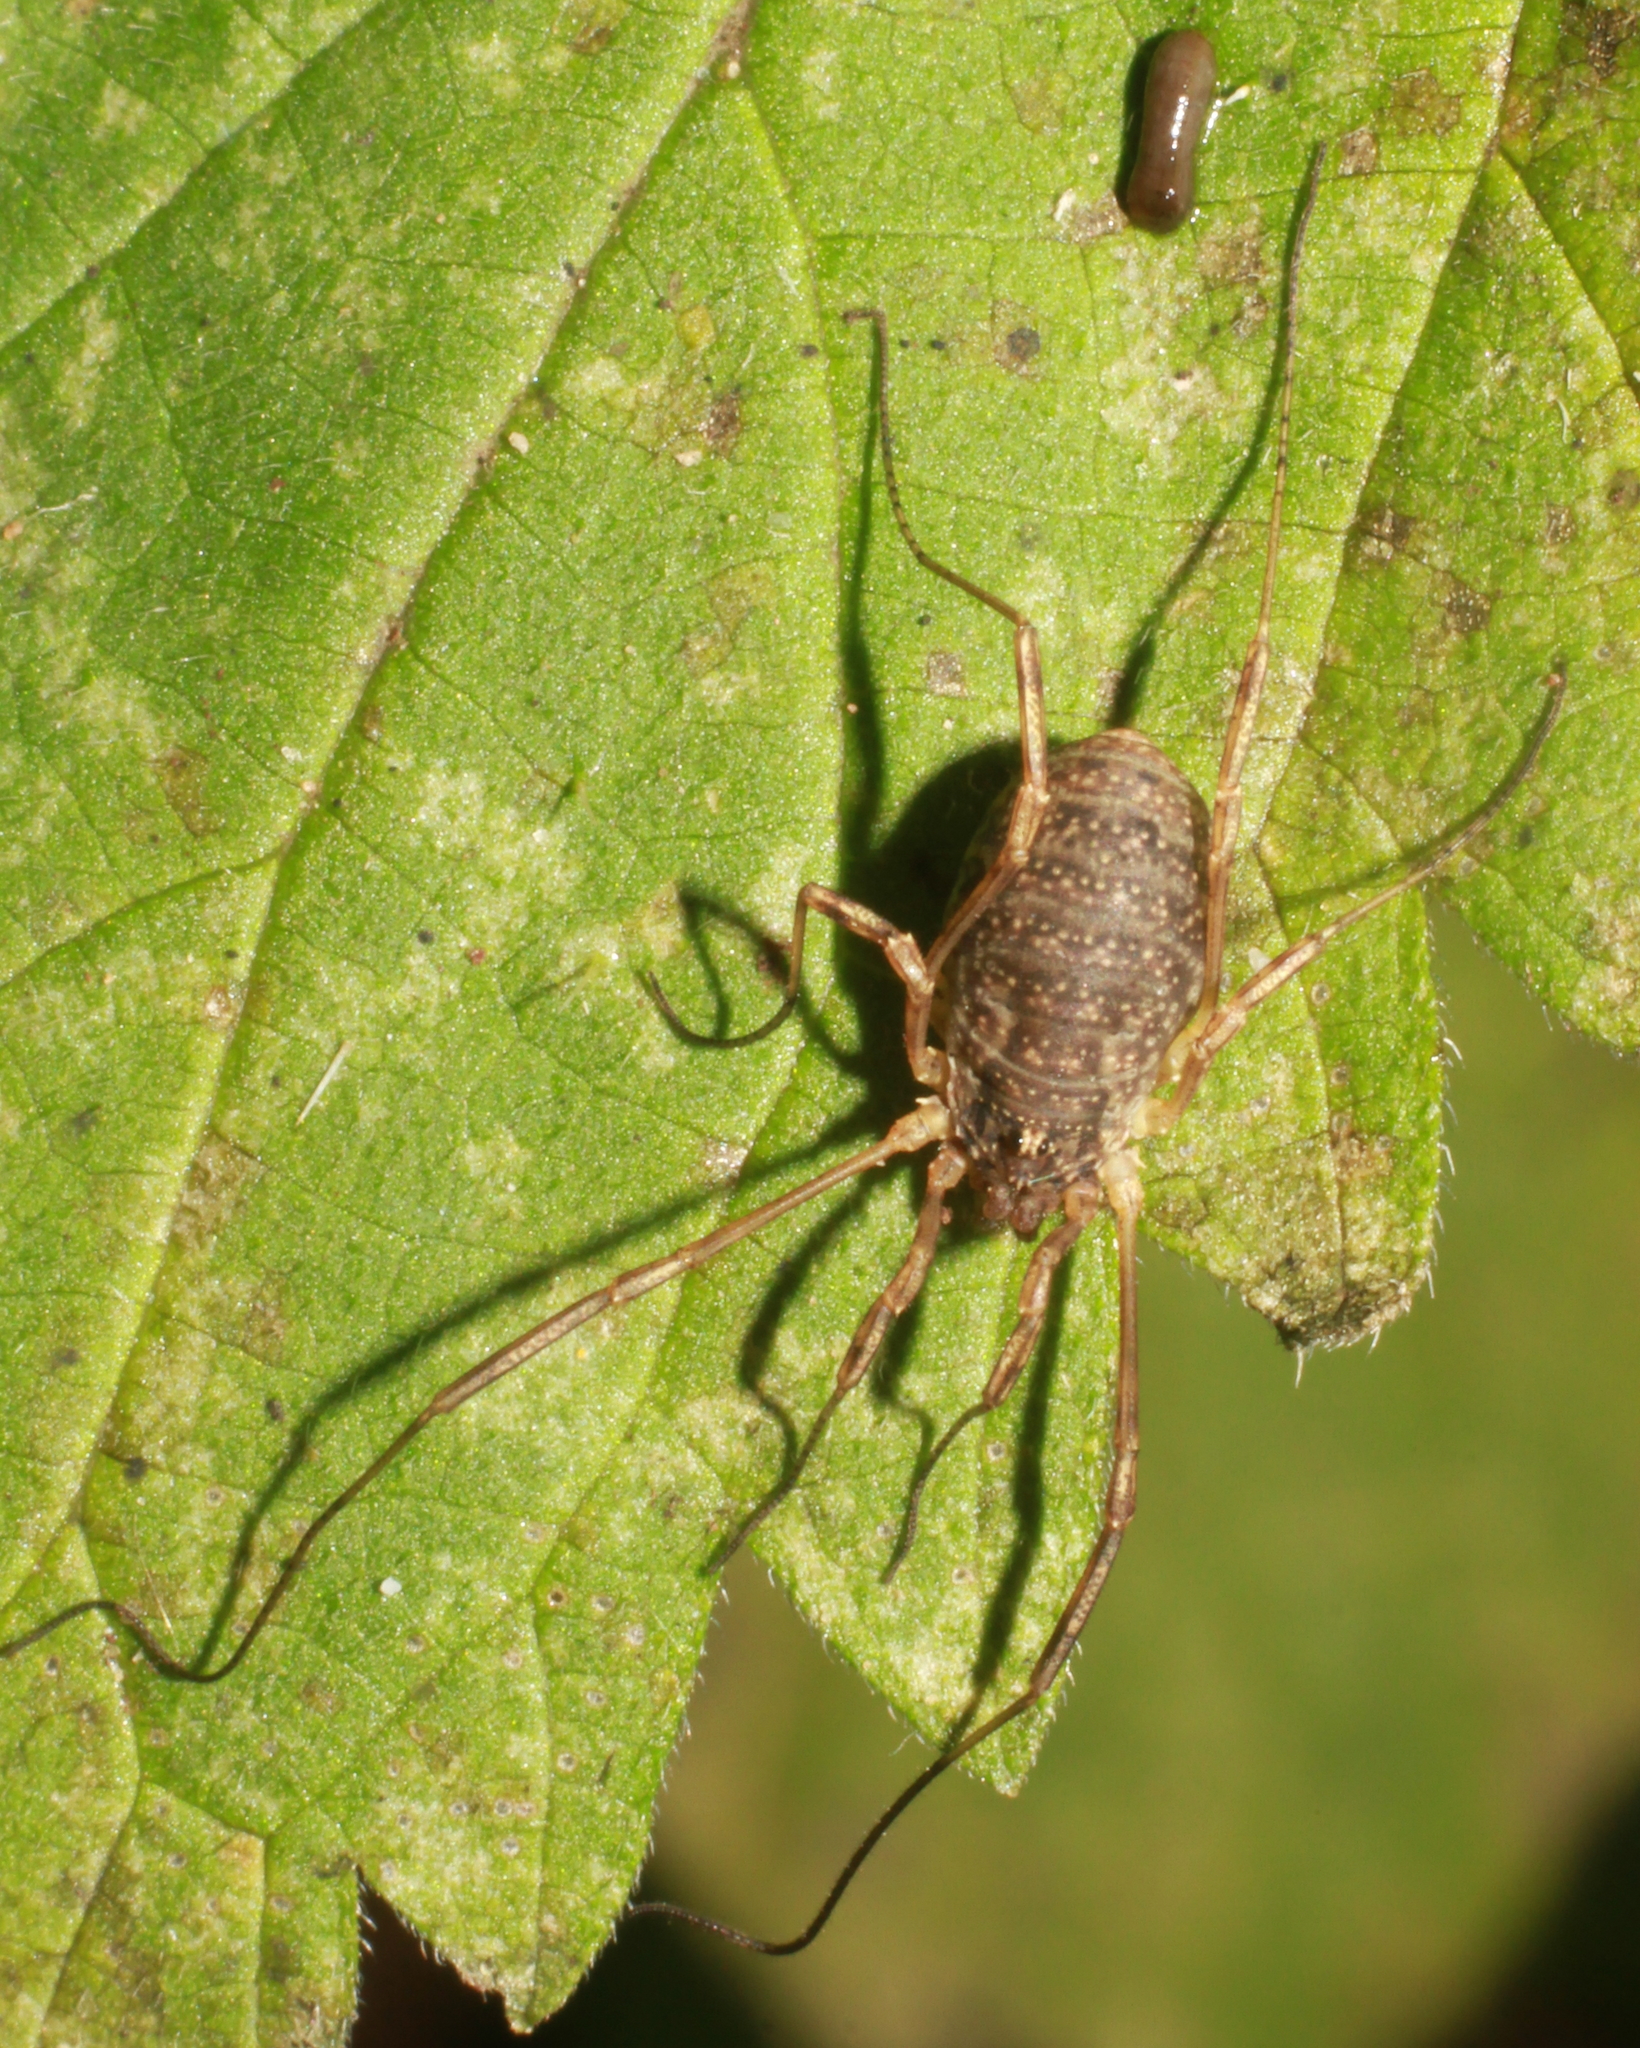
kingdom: Animalia
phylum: Arthropoda
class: Arachnida
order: Opiliones
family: Phalangiidae
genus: Oligolophus
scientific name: Oligolophus tridens
